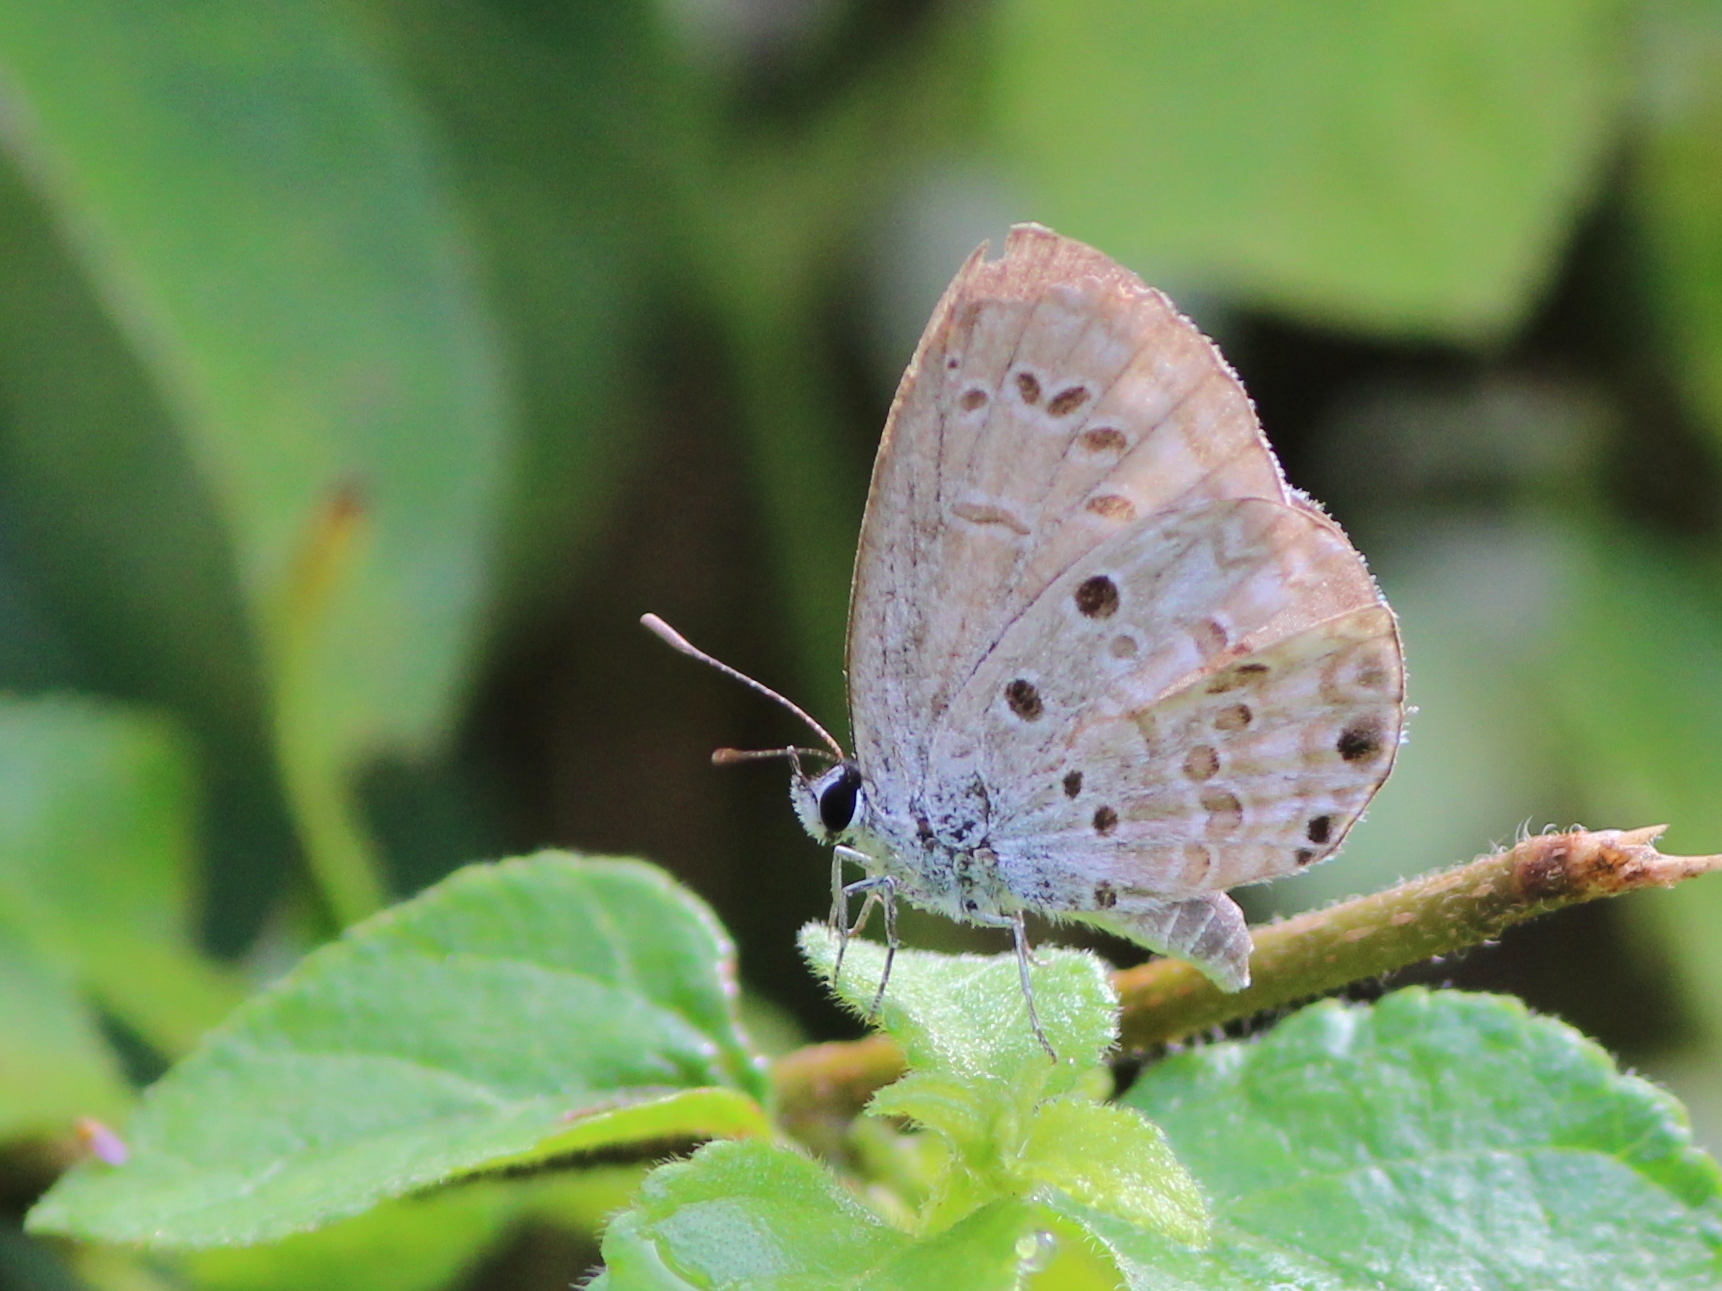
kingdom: Animalia
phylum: Arthropoda
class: Insecta
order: Lepidoptera
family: Lycaenidae
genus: Chilades
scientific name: Chilades laius
